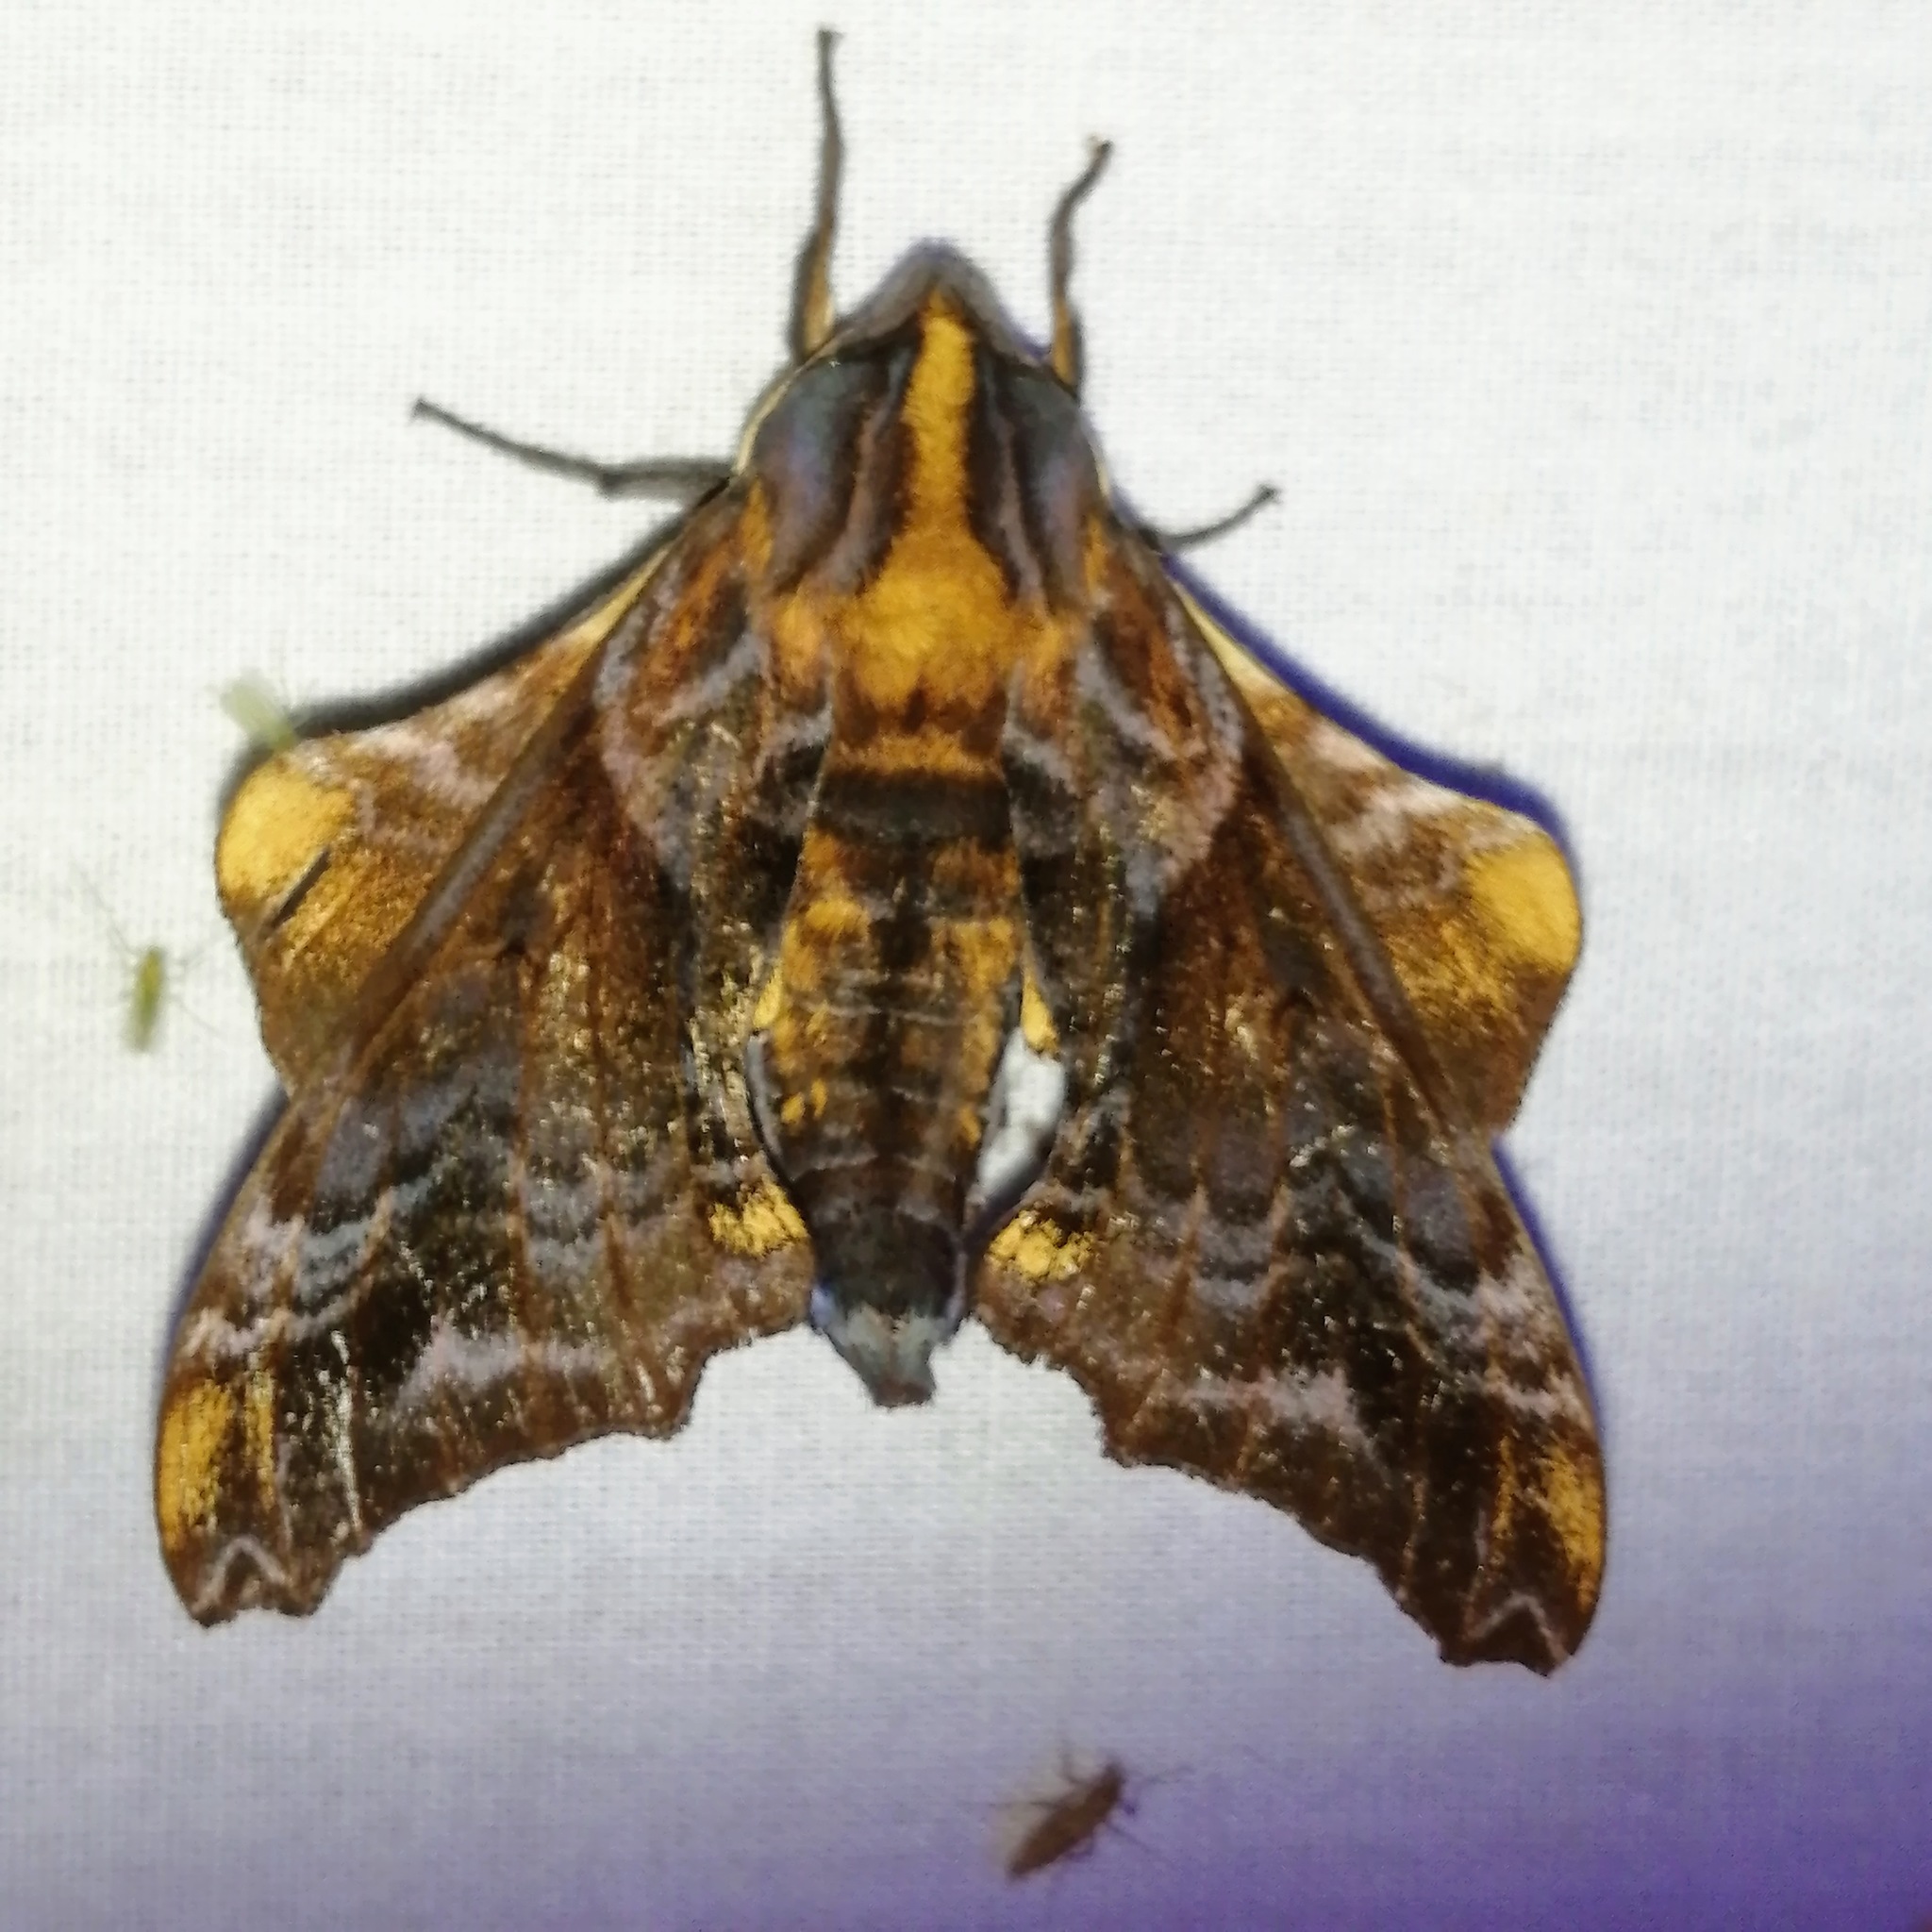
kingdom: Animalia
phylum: Arthropoda
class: Insecta
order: Lepidoptera
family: Sphingidae
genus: Paonias
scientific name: Paonias myops
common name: Small-eyed sphinx
